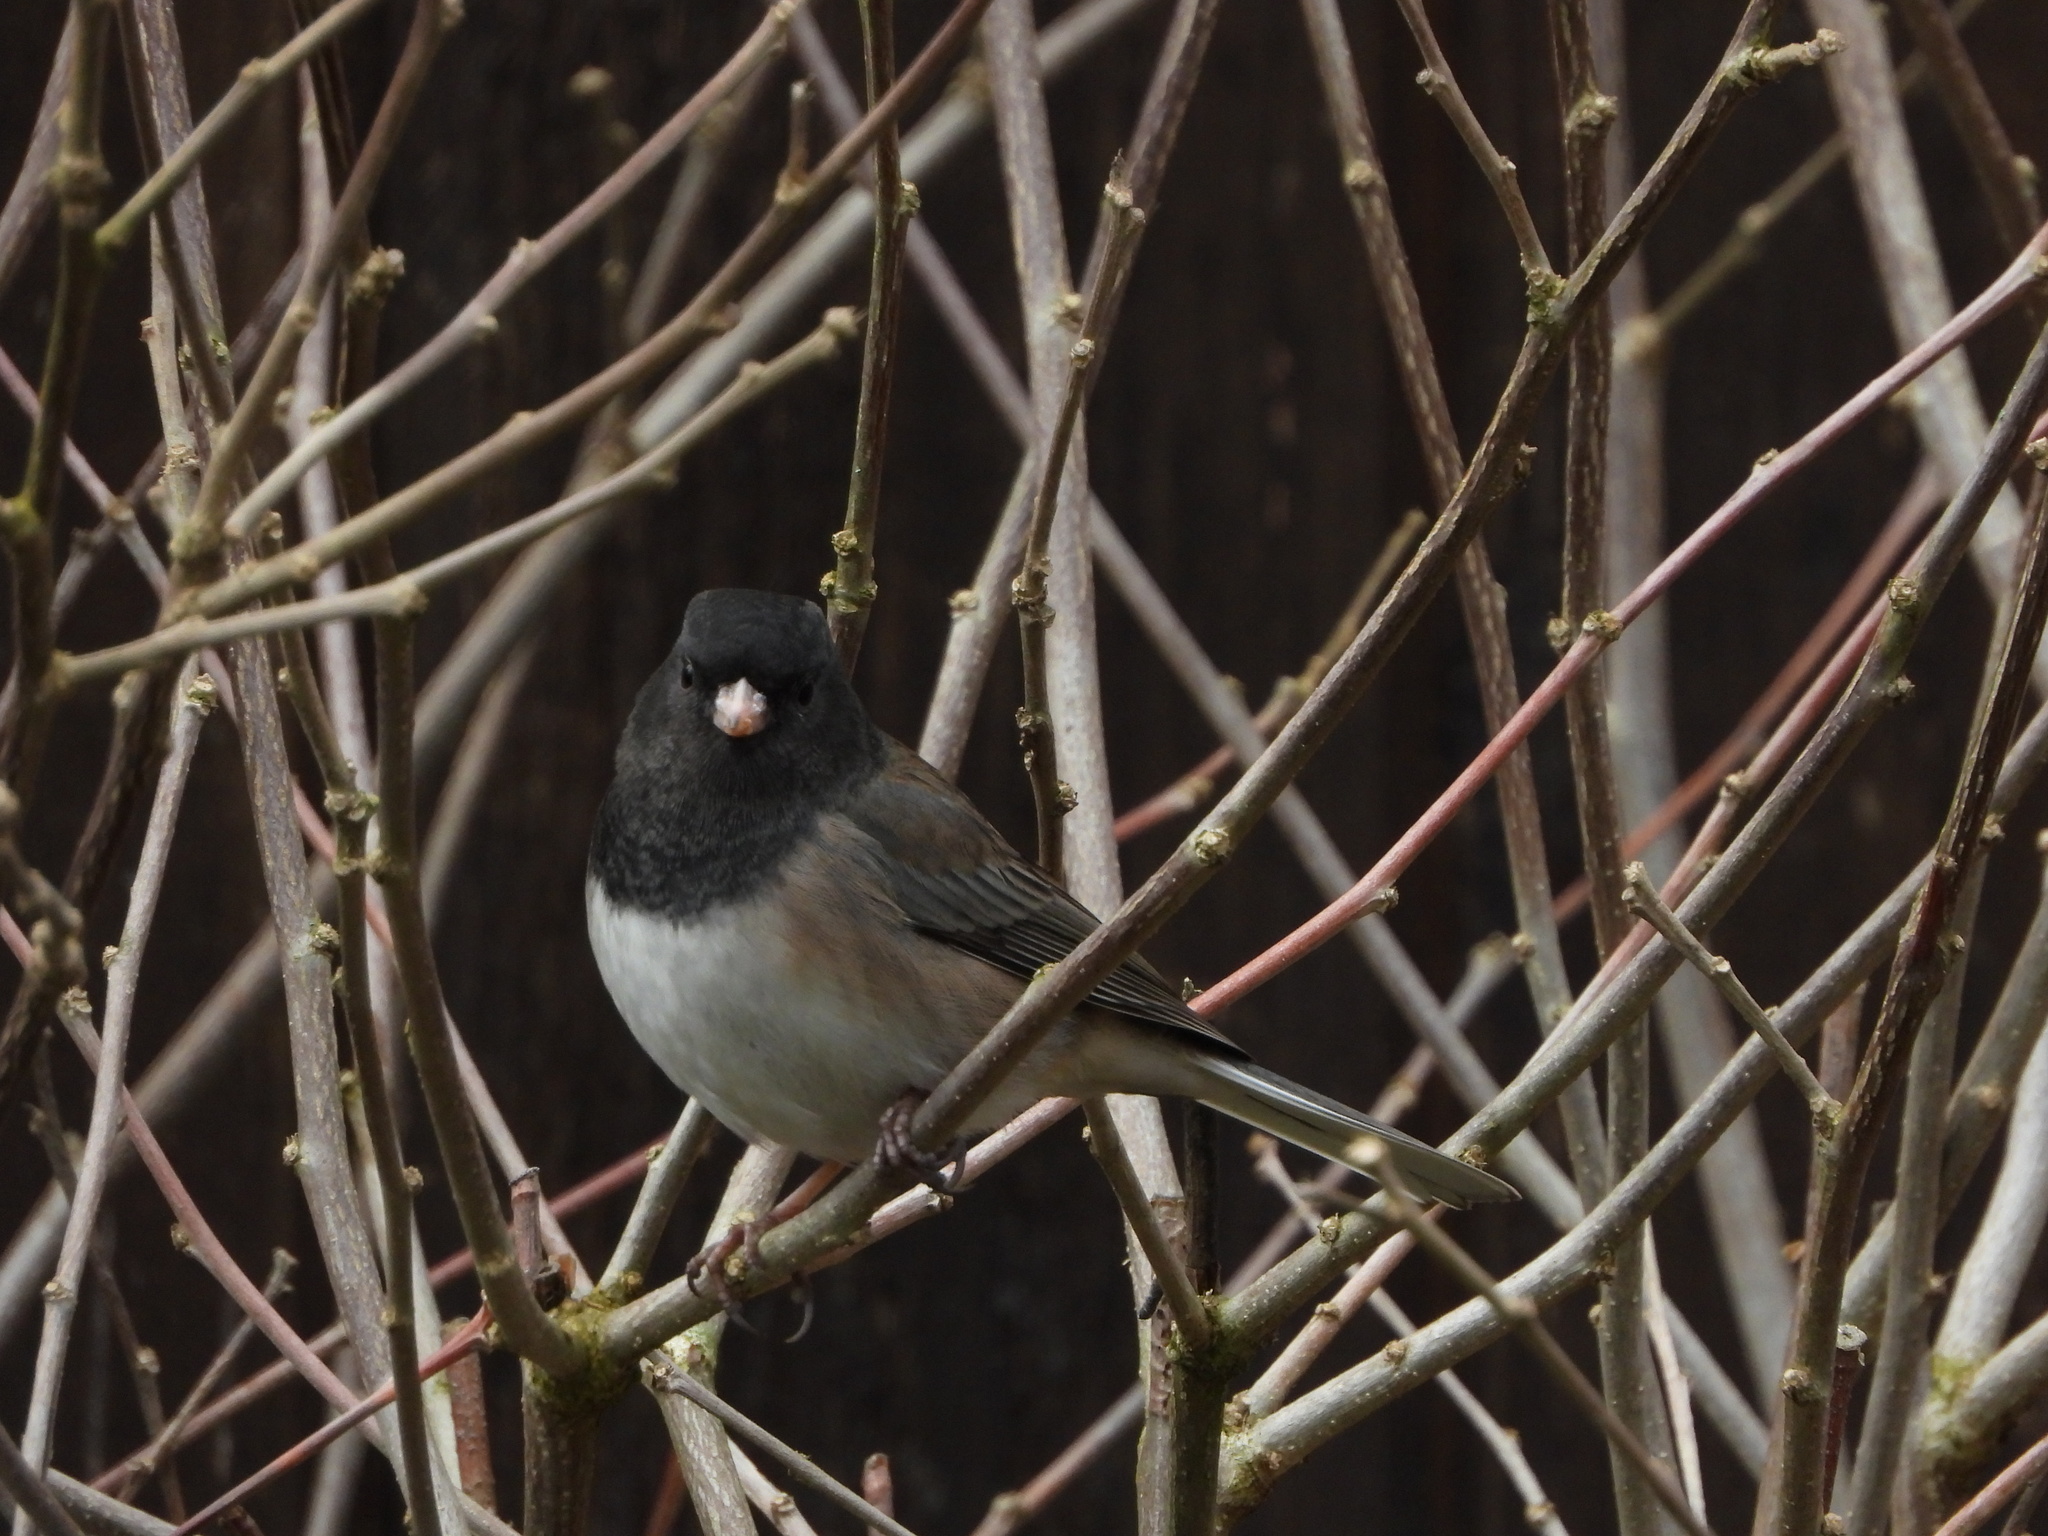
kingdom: Animalia
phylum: Chordata
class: Aves
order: Passeriformes
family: Passerellidae
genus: Junco
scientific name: Junco hyemalis
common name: Dark-eyed junco
